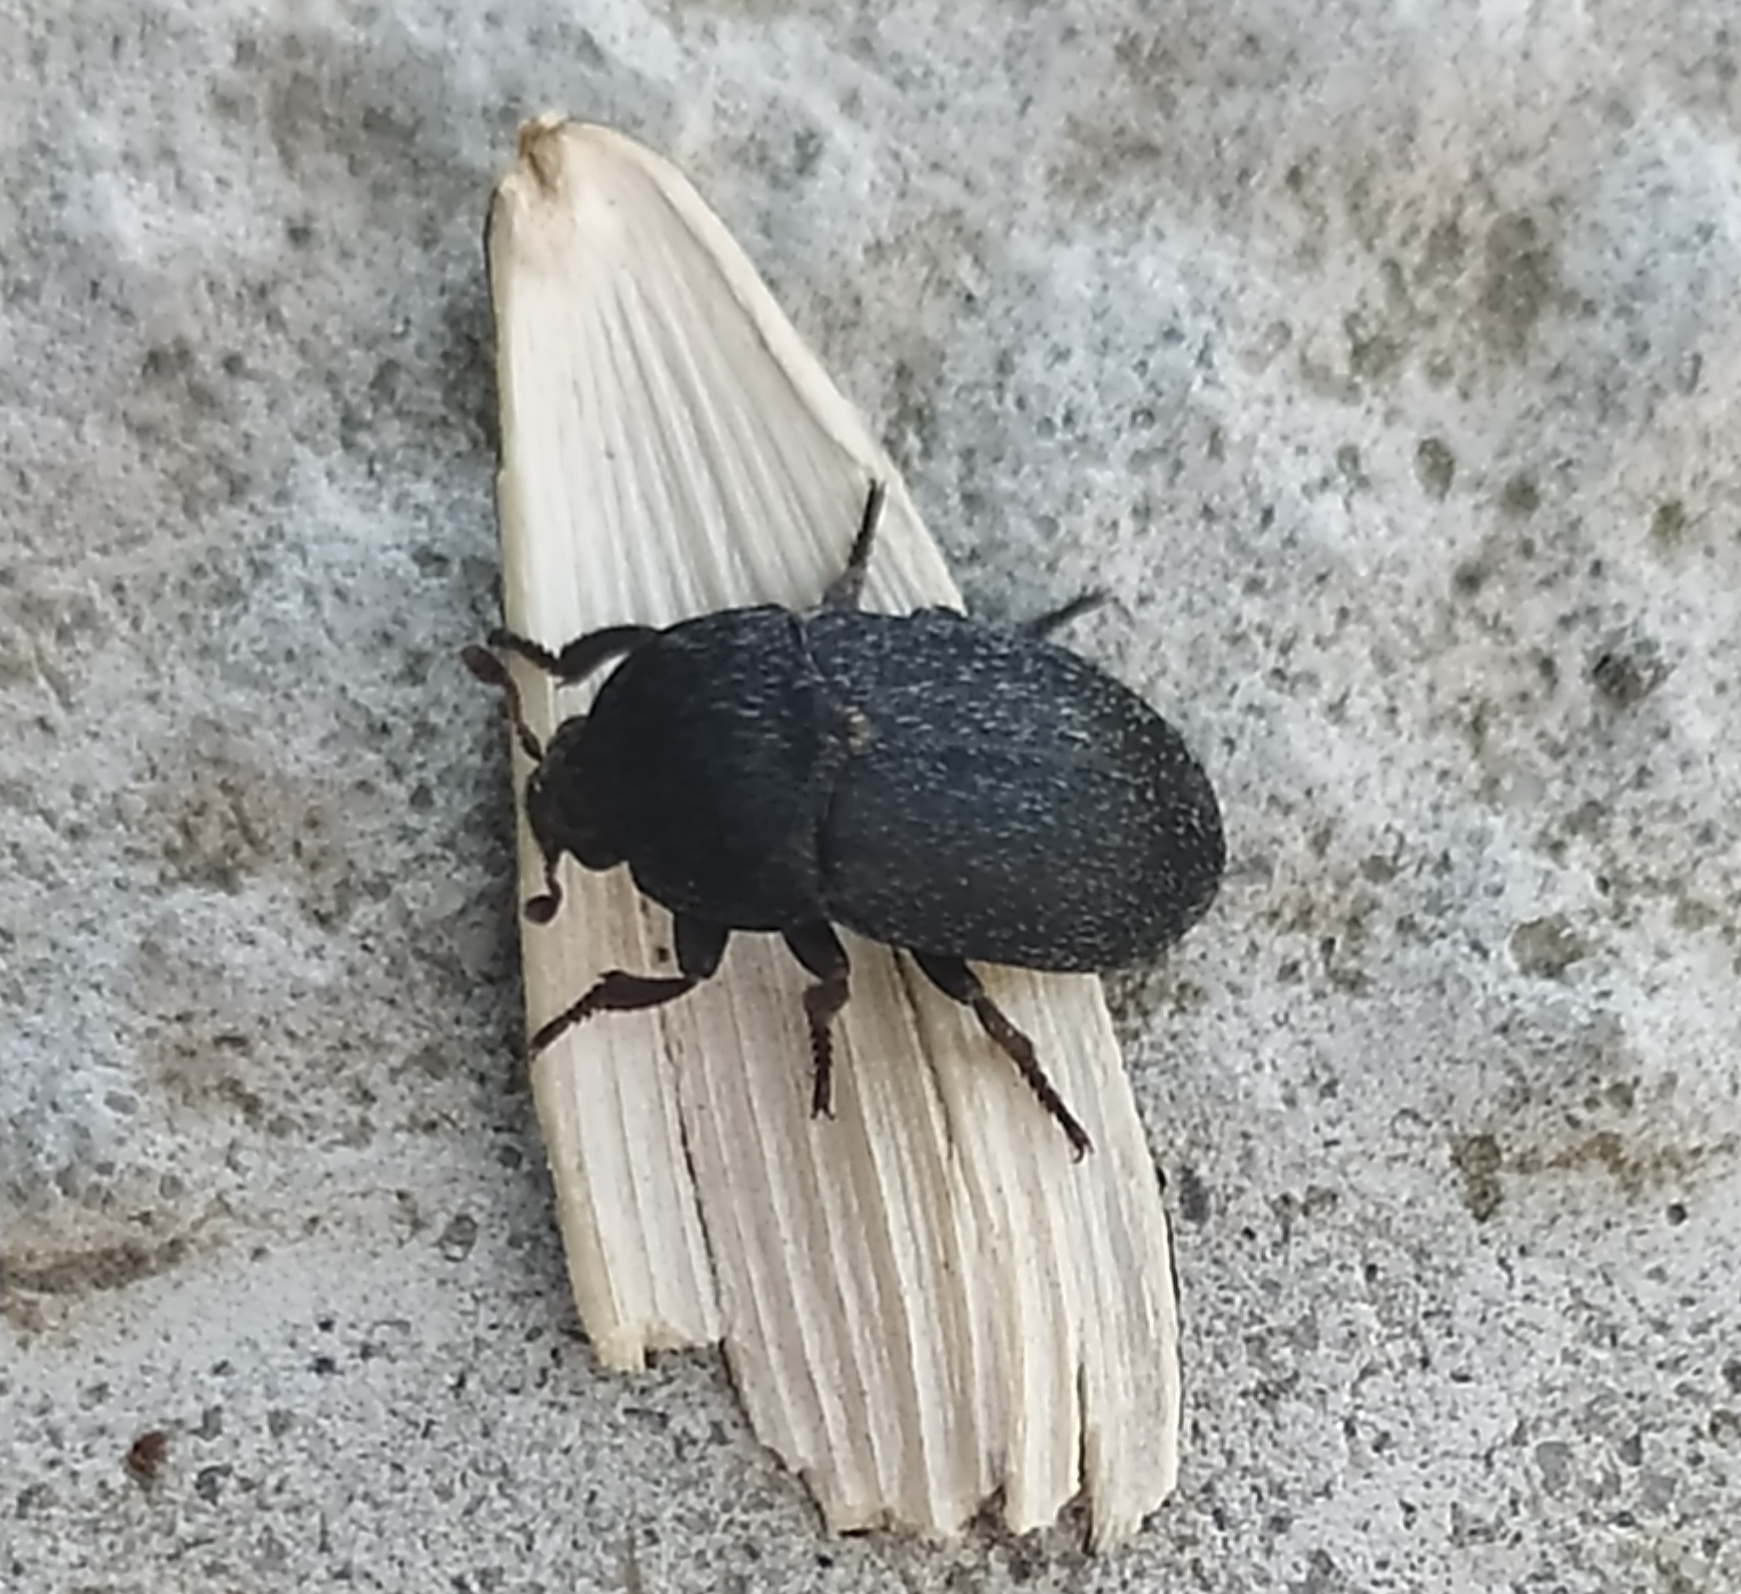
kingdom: Animalia
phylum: Arthropoda
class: Insecta
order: Coleoptera
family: Dermestidae
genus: Dermestes
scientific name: Dermestes laniarius
